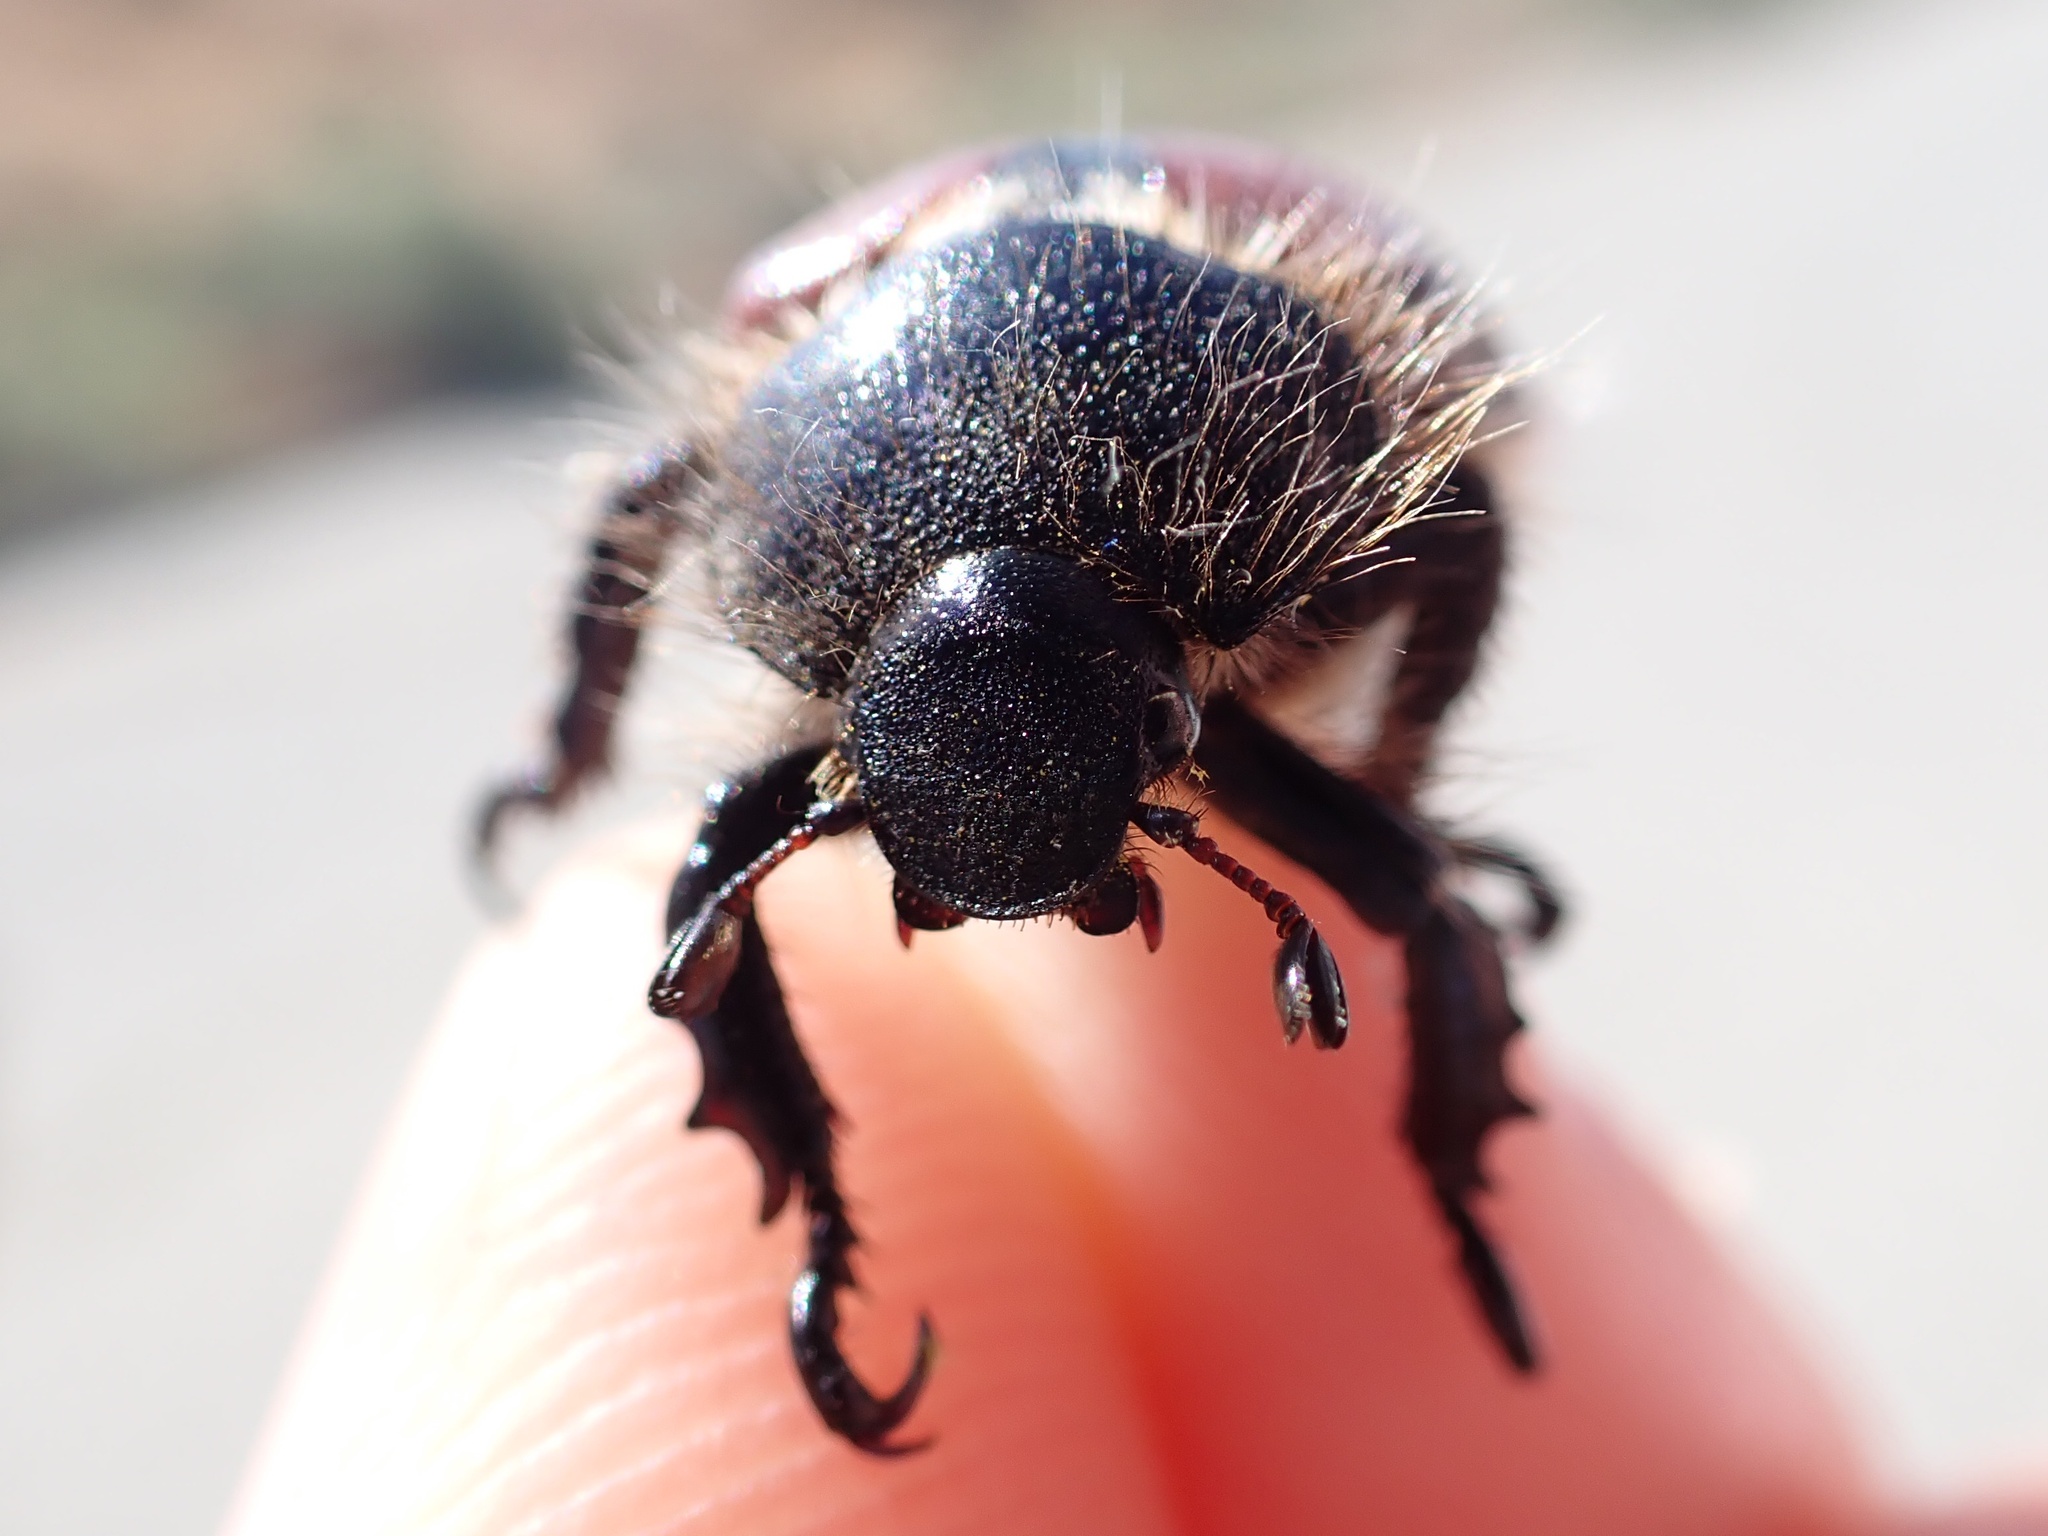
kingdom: Animalia
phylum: Arthropoda
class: Insecta
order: Coleoptera
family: Scarabaeidae
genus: Paracotalpa
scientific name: Paracotalpa ursina
